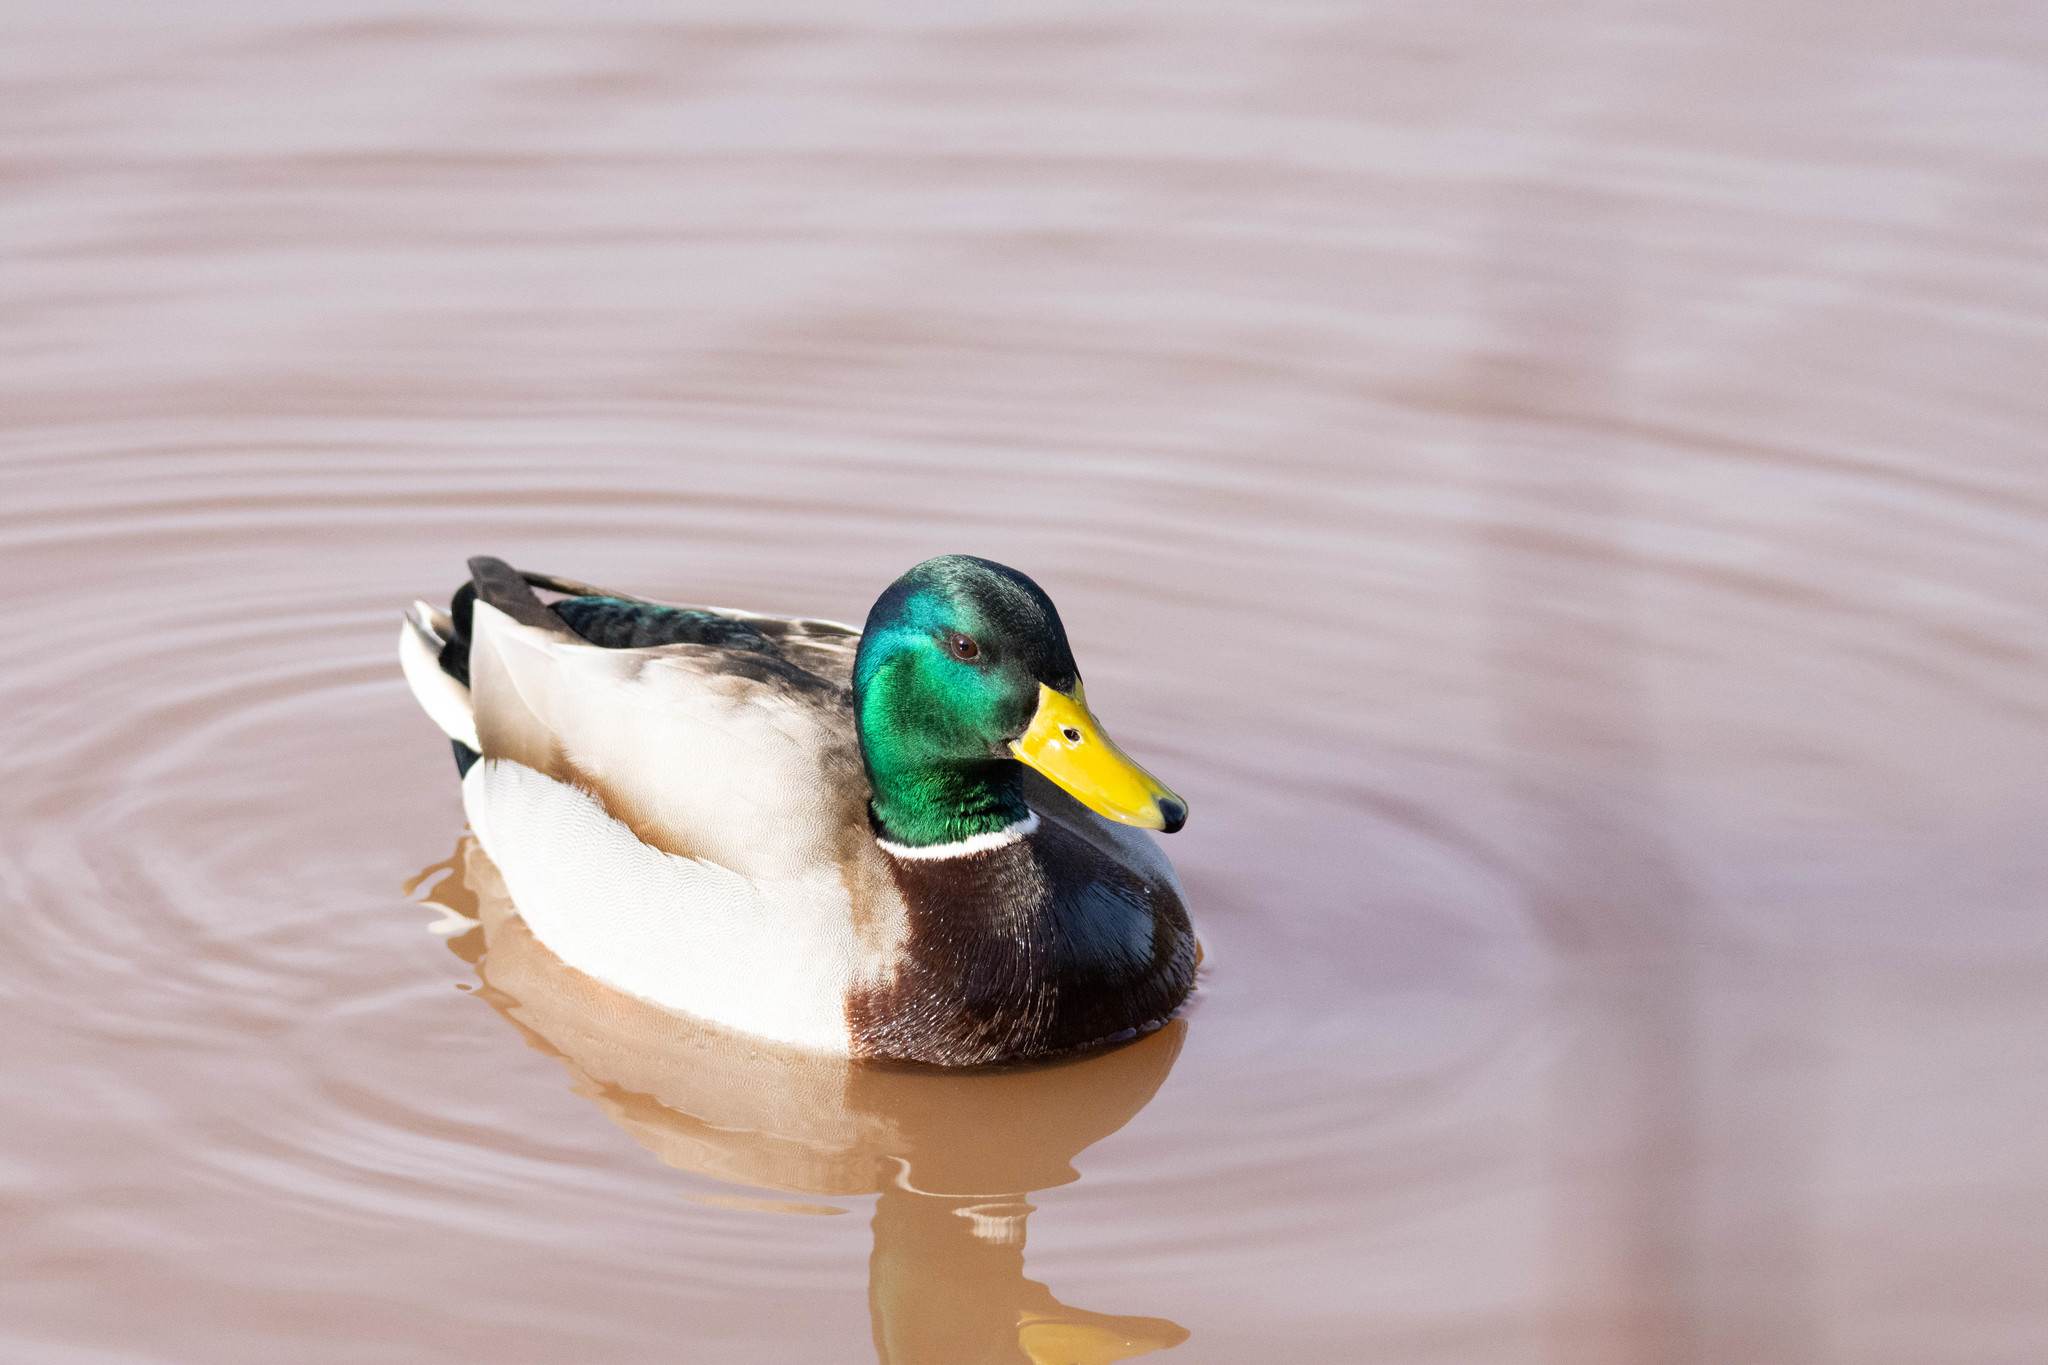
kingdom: Animalia
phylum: Chordata
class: Aves
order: Anseriformes
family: Anatidae
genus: Anas
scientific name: Anas platyrhynchos
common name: Mallard
